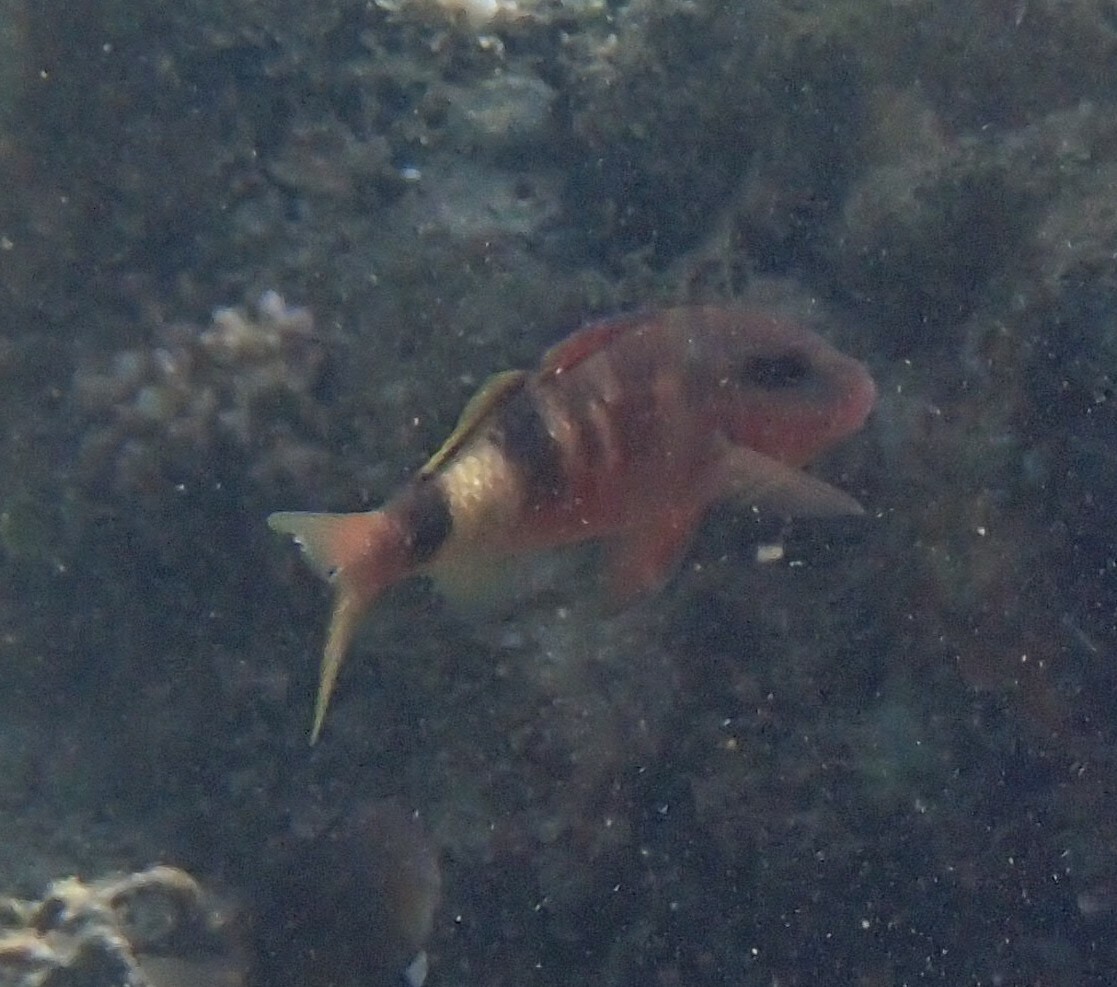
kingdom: Animalia
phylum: Chordata
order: Perciformes
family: Mullidae
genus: Parupeneus
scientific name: Parupeneus multifasciatus
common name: Manybar goatfish
